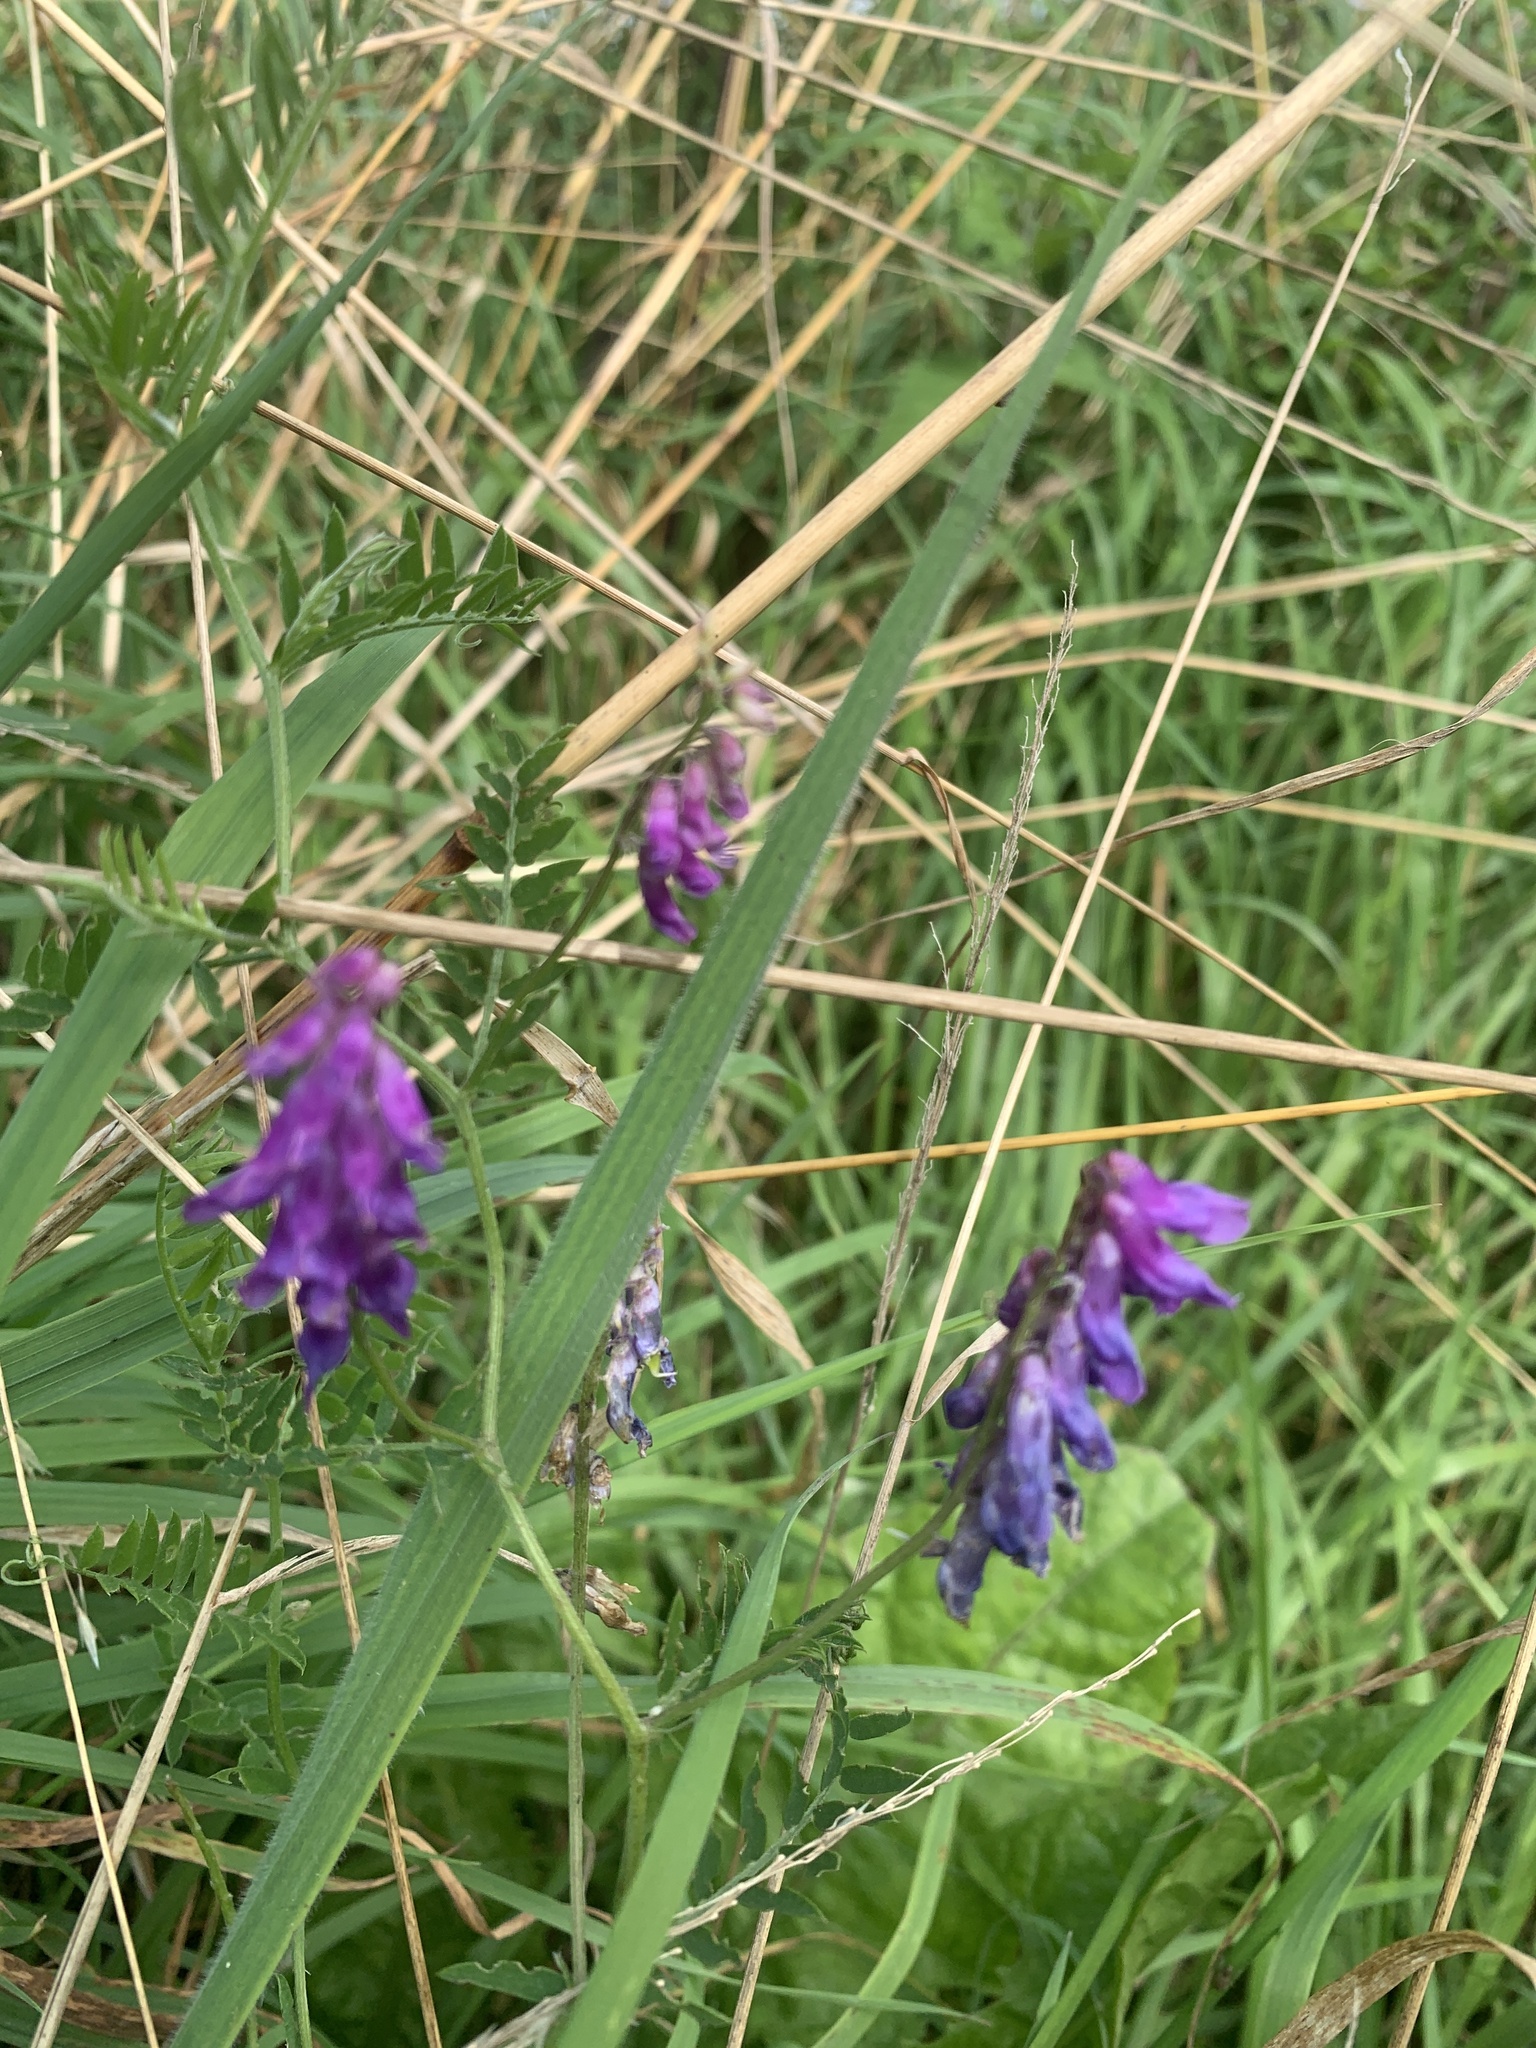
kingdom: Plantae
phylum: Tracheophyta
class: Magnoliopsida
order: Fabales
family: Fabaceae
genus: Vicia
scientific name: Vicia cracca
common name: Bird vetch
